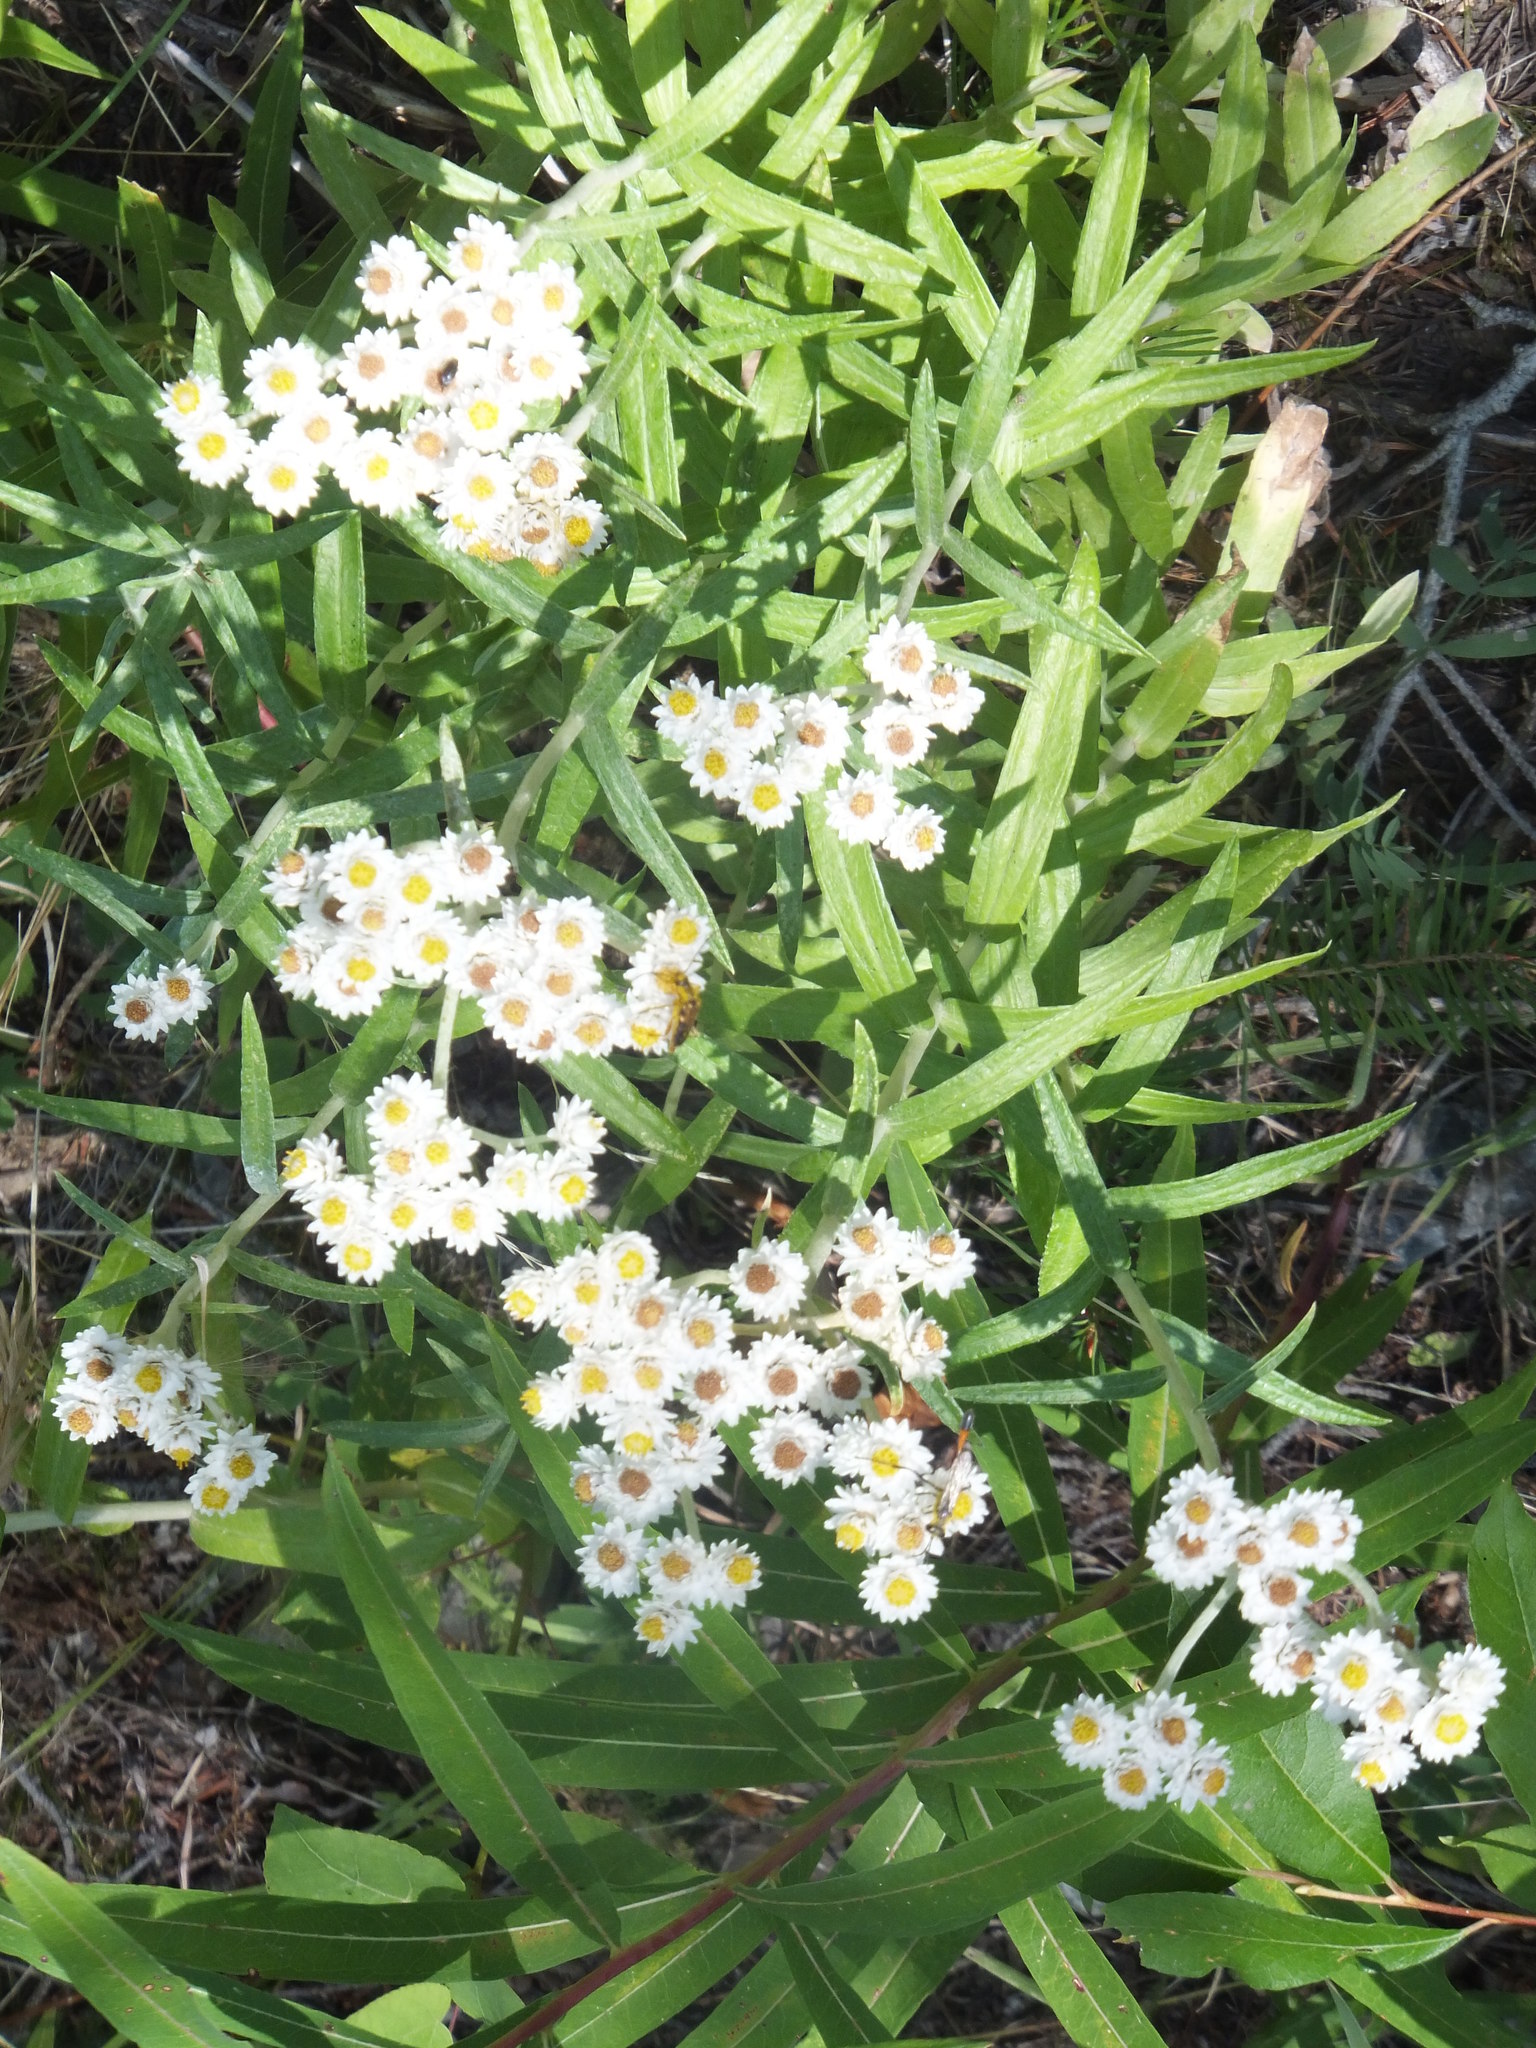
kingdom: Plantae
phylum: Tracheophyta
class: Magnoliopsida
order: Asterales
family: Asteraceae
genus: Anaphalis
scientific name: Anaphalis margaritacea
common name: Pearly everlasting
